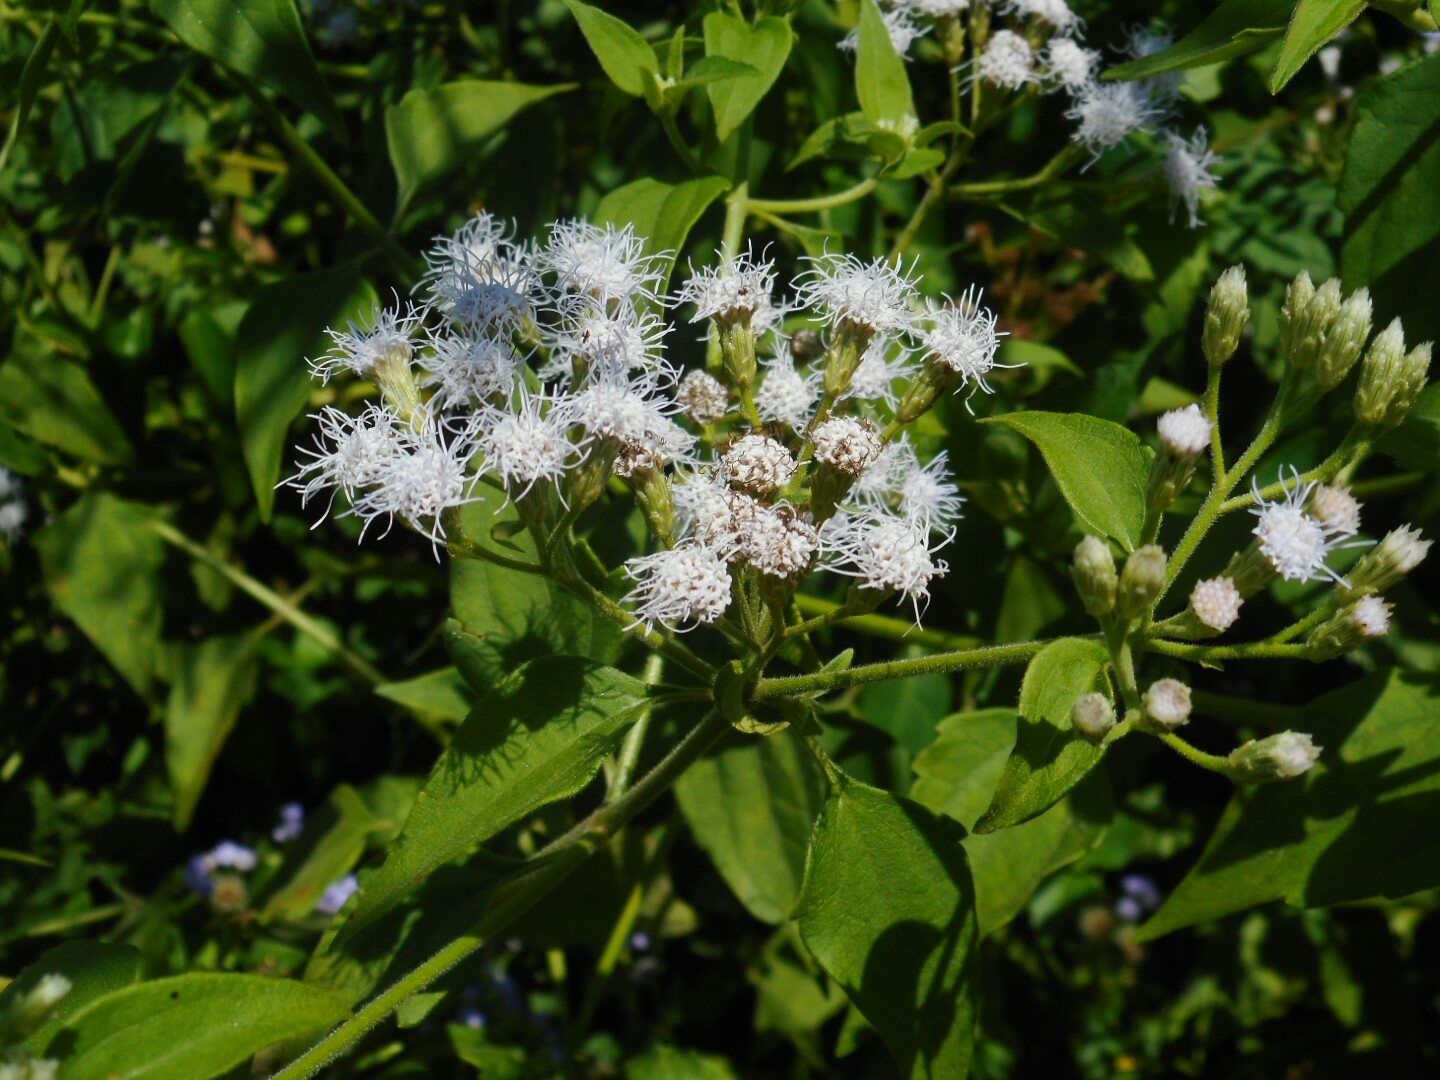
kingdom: Plantae
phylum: Tracheophyta
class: Magnoliopsida
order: Asterales
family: Asteraceae
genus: Chromolaena
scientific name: Chromolaena odorata
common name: Siamweed
